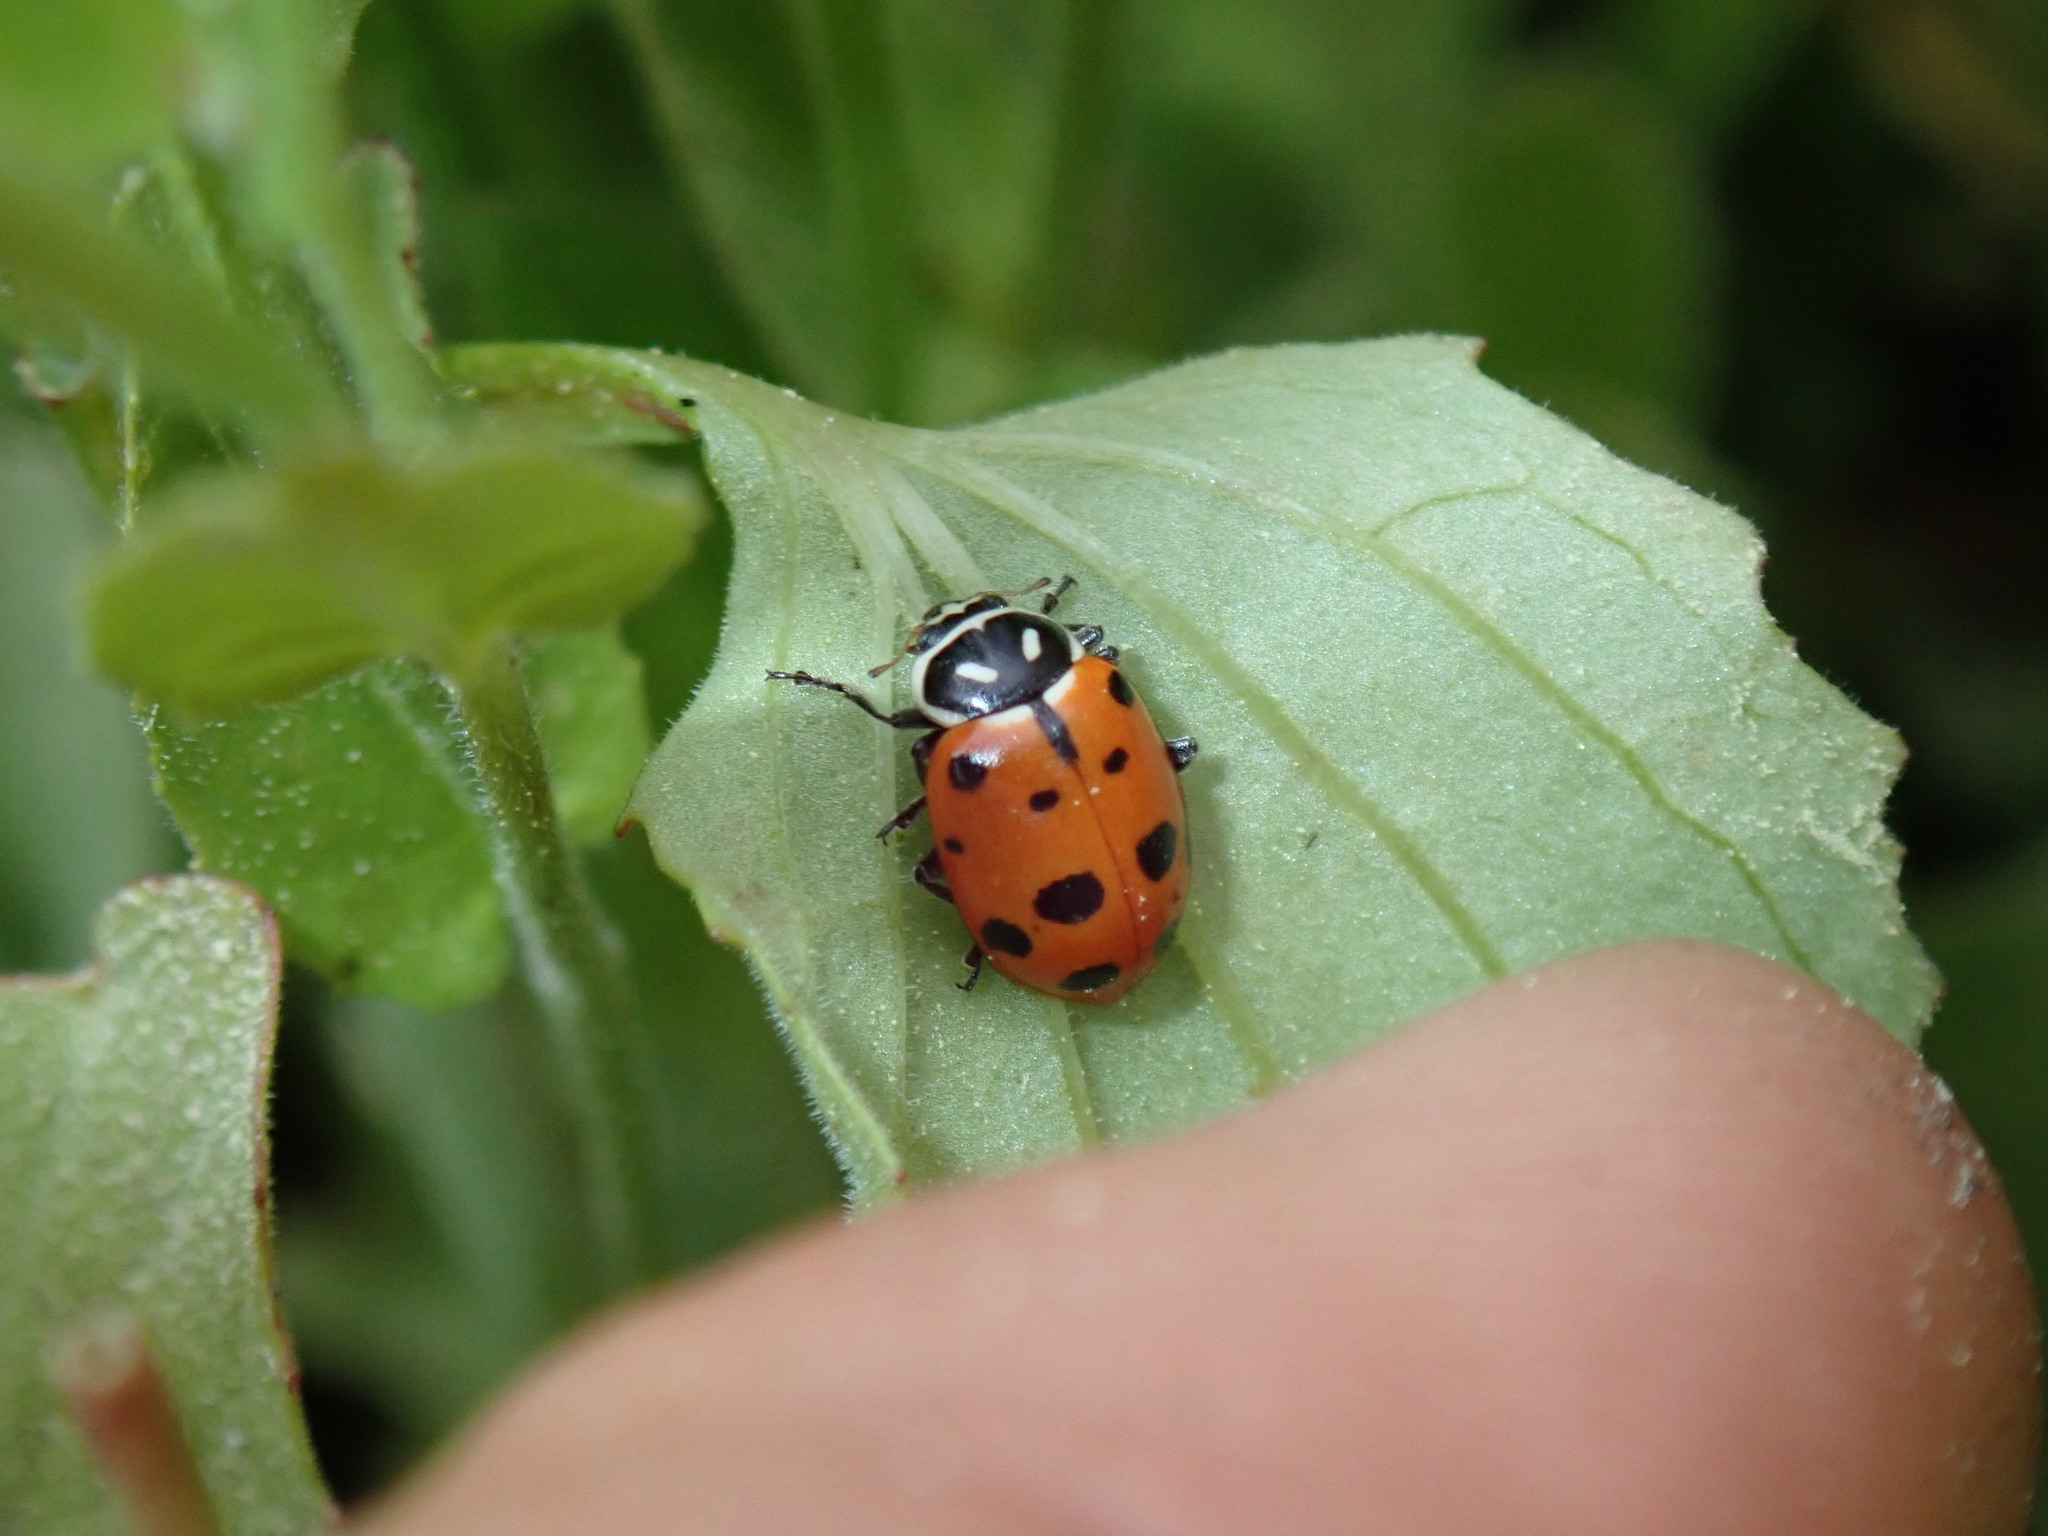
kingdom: Animalia
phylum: Arthropoda
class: Insecta
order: Coleoptera
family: Coccinellidae
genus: Hippodamia
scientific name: Hippodamia convergens
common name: Convergent lady beetle
